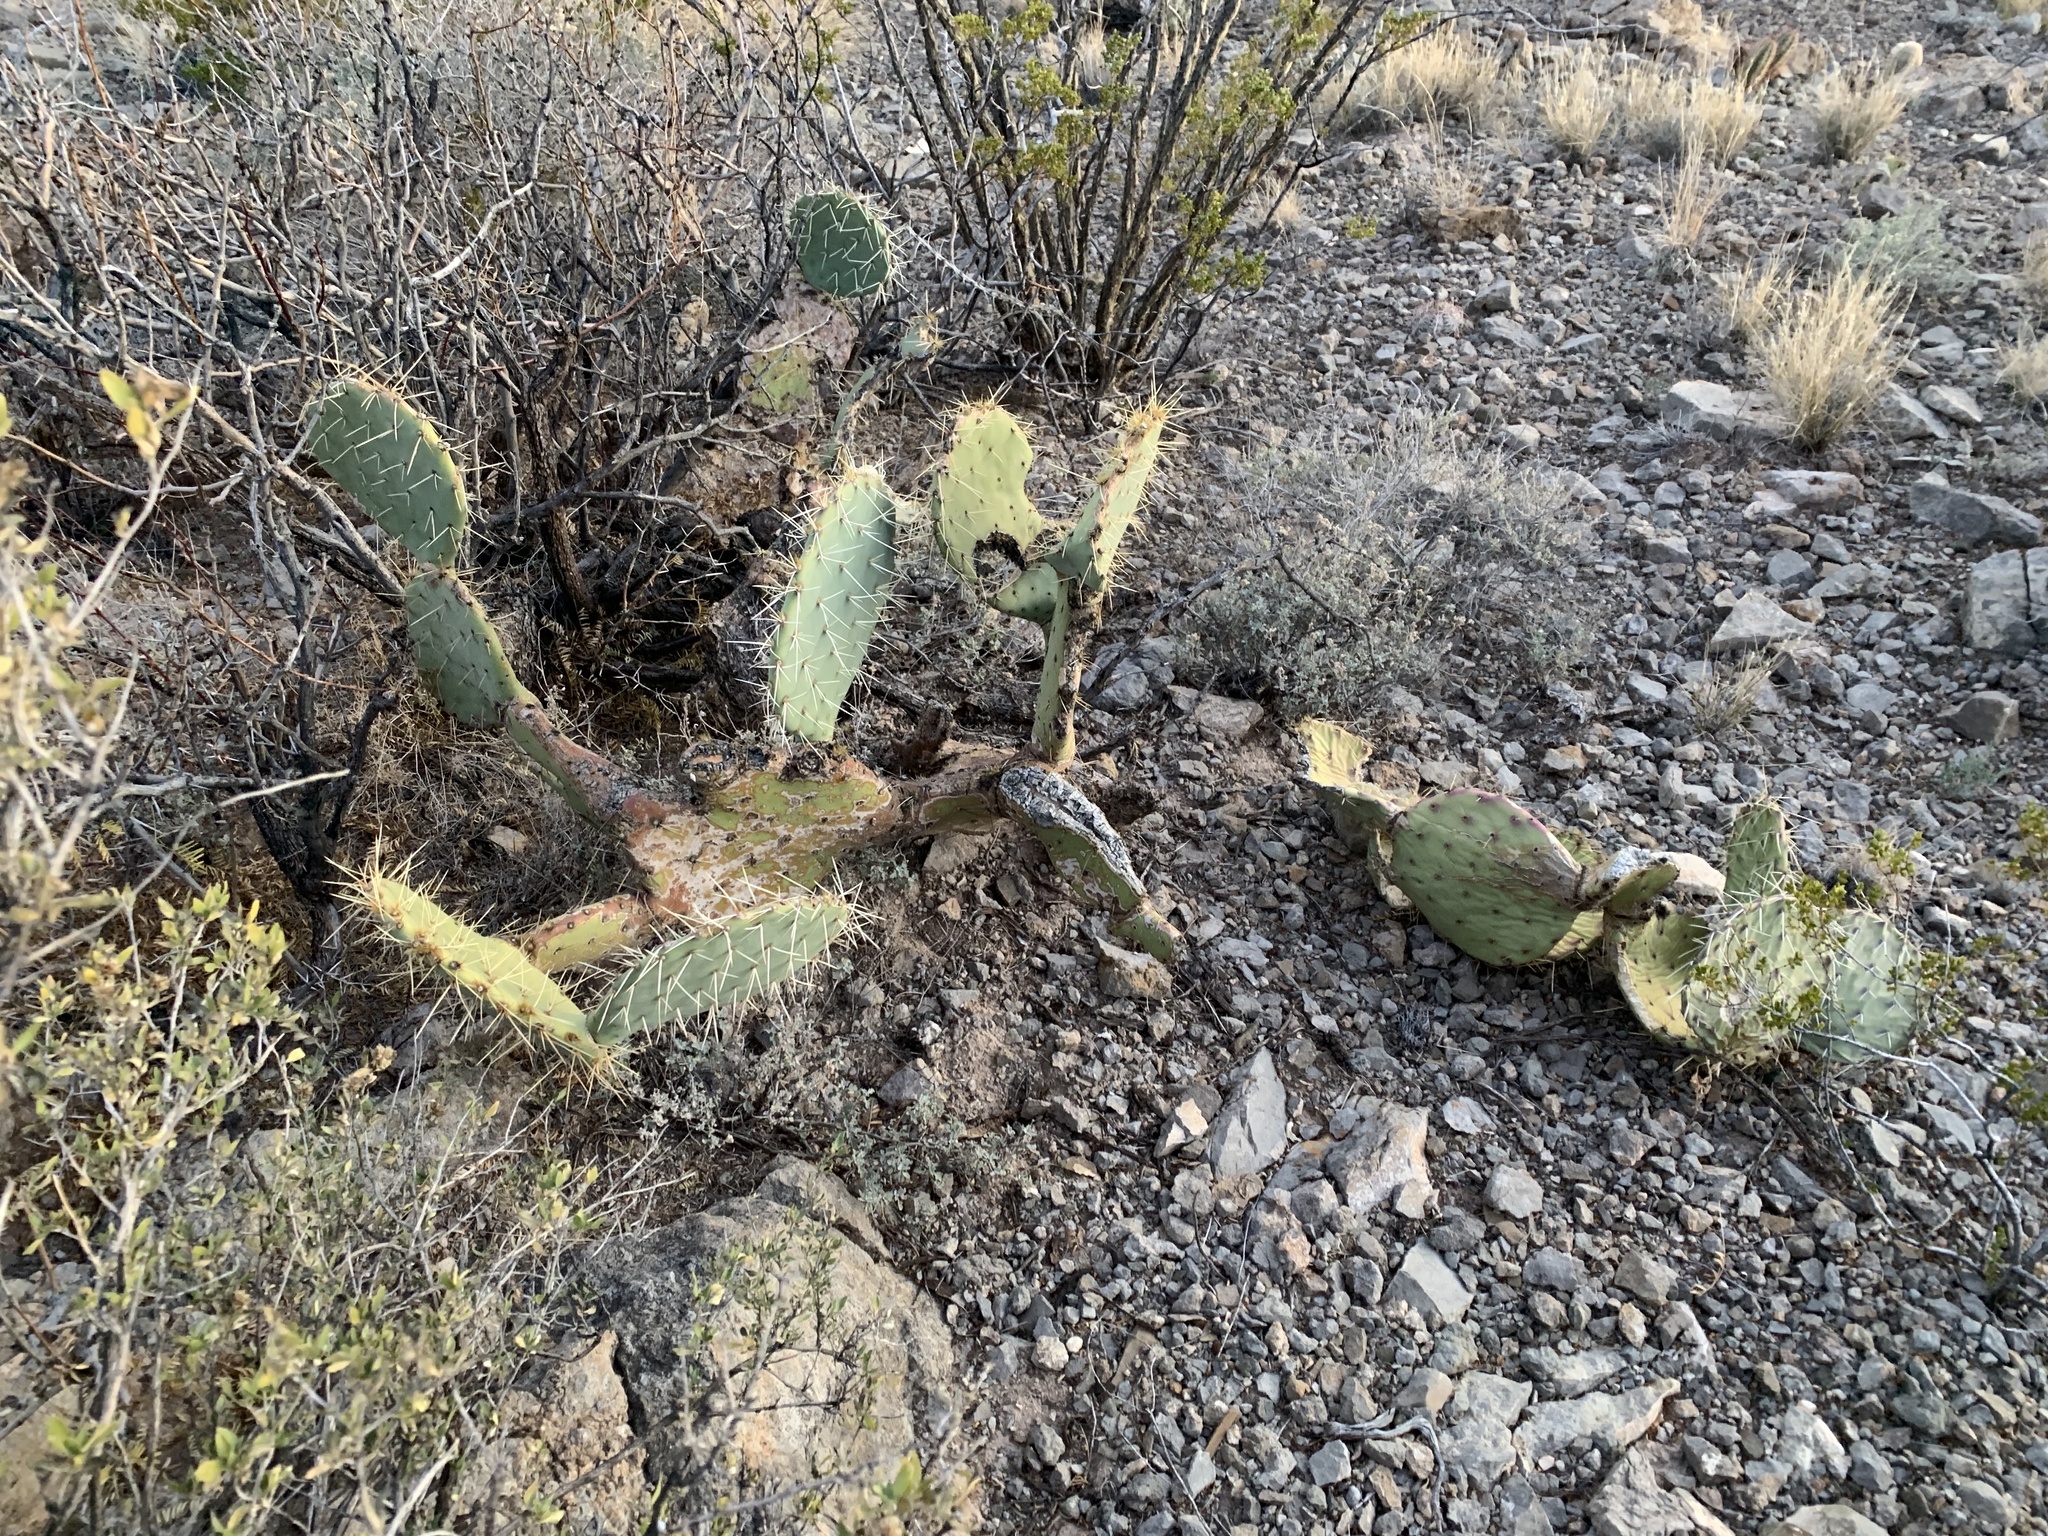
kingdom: Plantae
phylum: Tracheophyta
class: Magnoliopsida
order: Caryophyllales
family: Cactaceae
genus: Opuntia
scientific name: Opuntia engelmannii
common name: Cactus-apple
